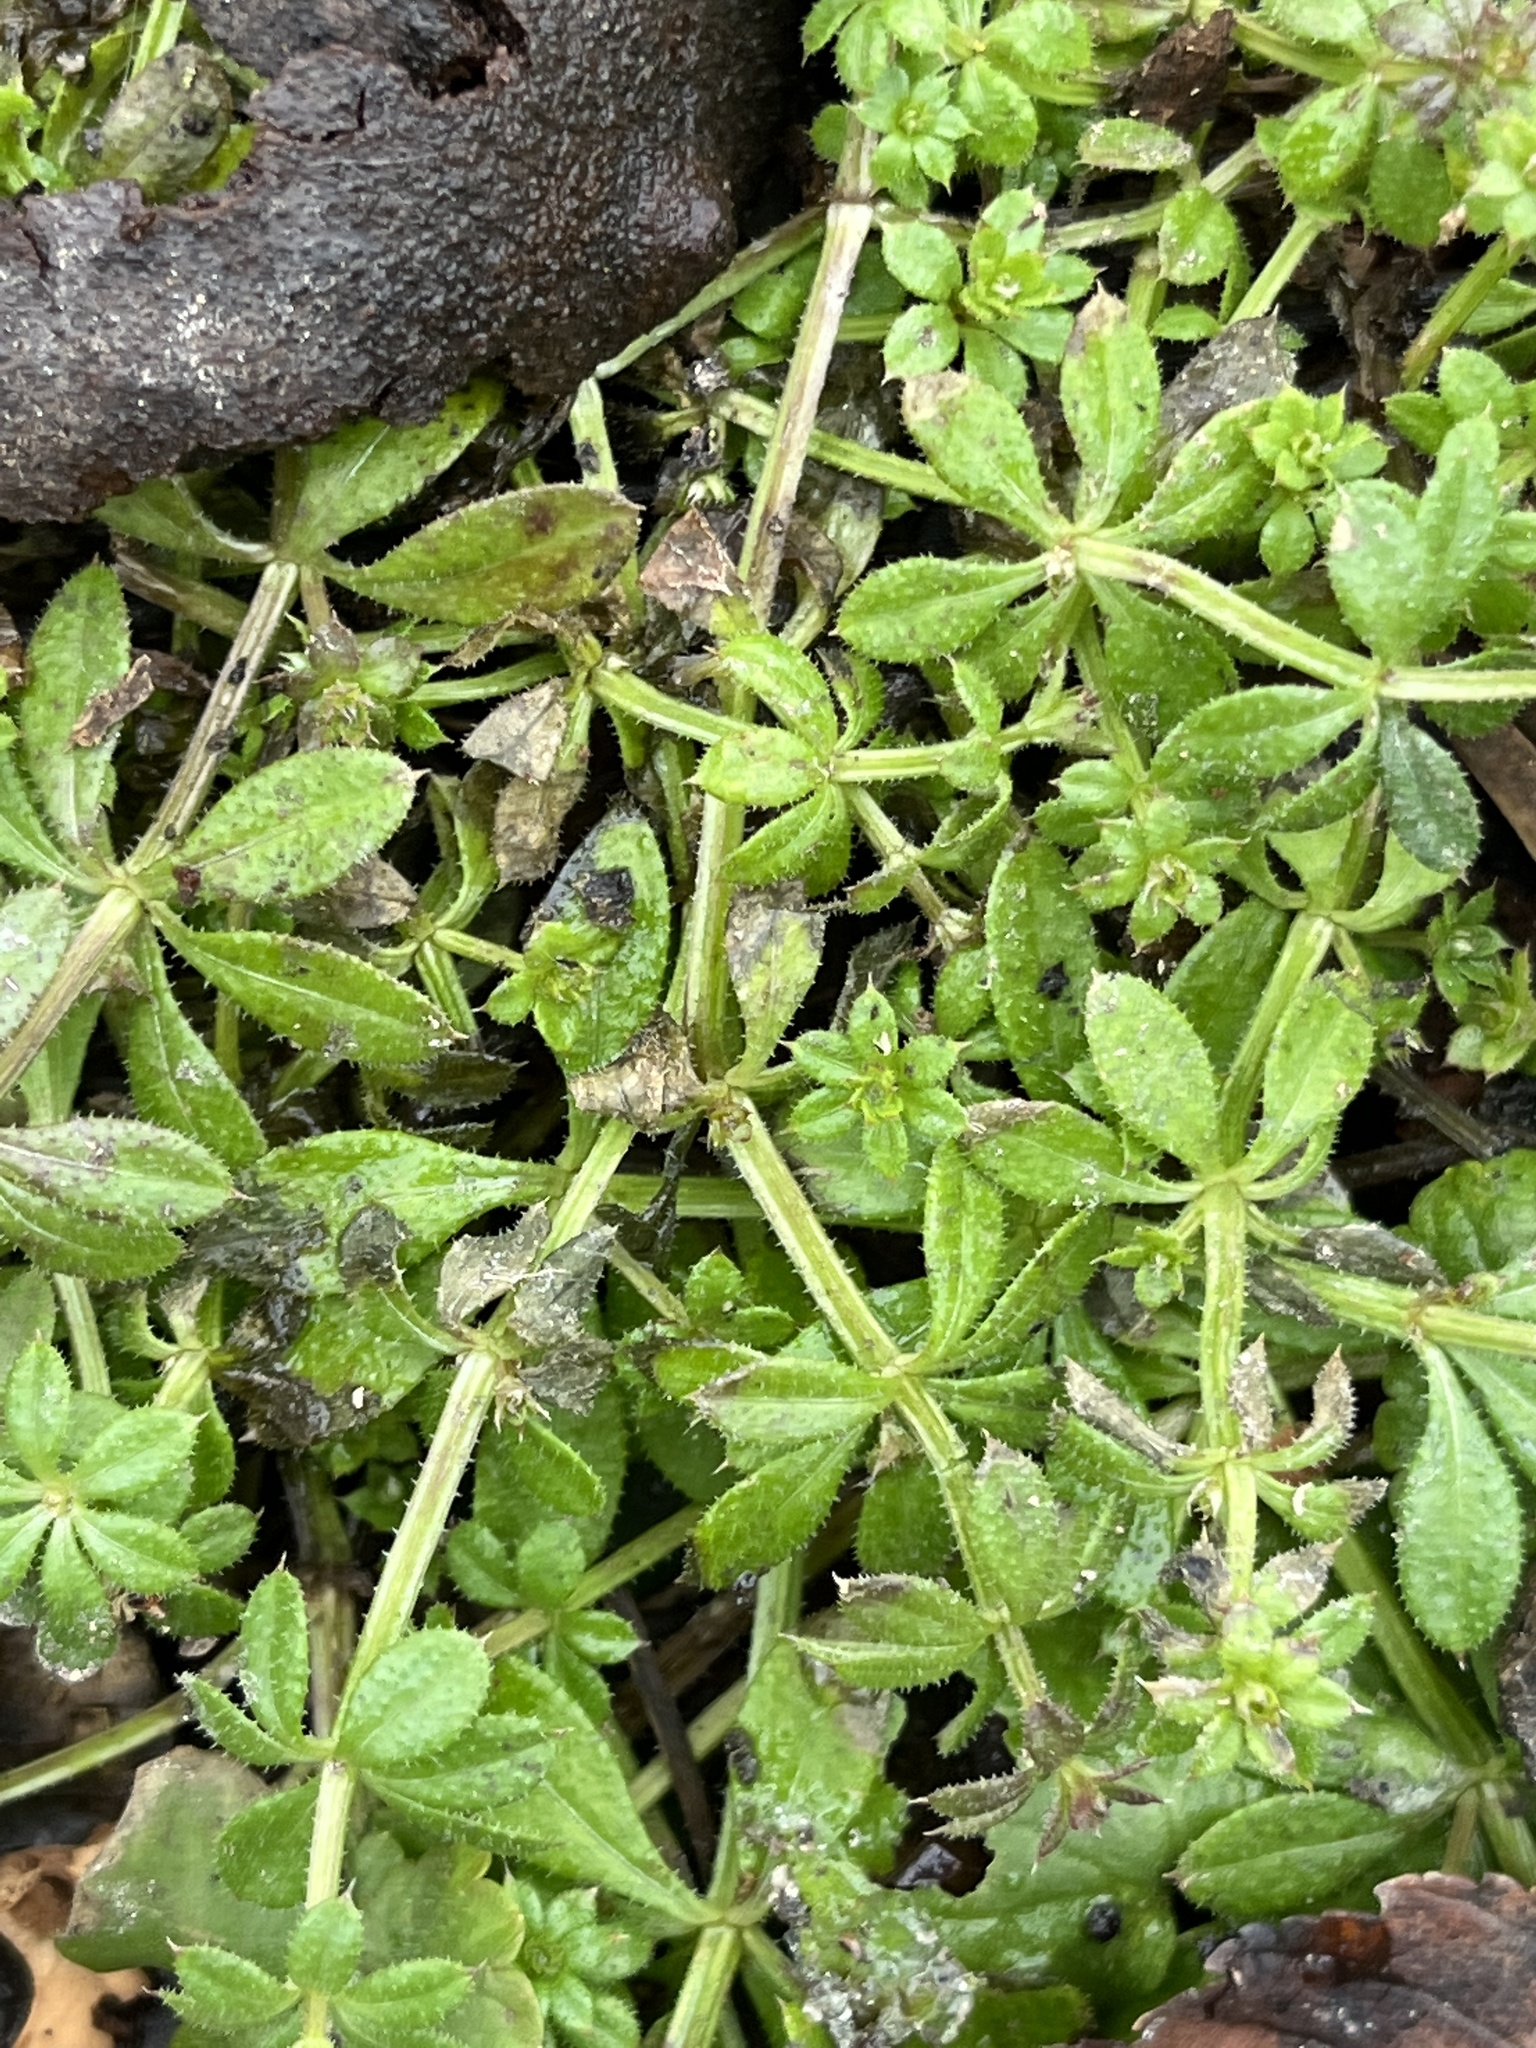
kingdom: Plantae
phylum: Tracheophyta
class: Magnoliopsida
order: Gentianales
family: Rubiaceae
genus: Galium
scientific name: Galium aparine
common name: Cleavers
